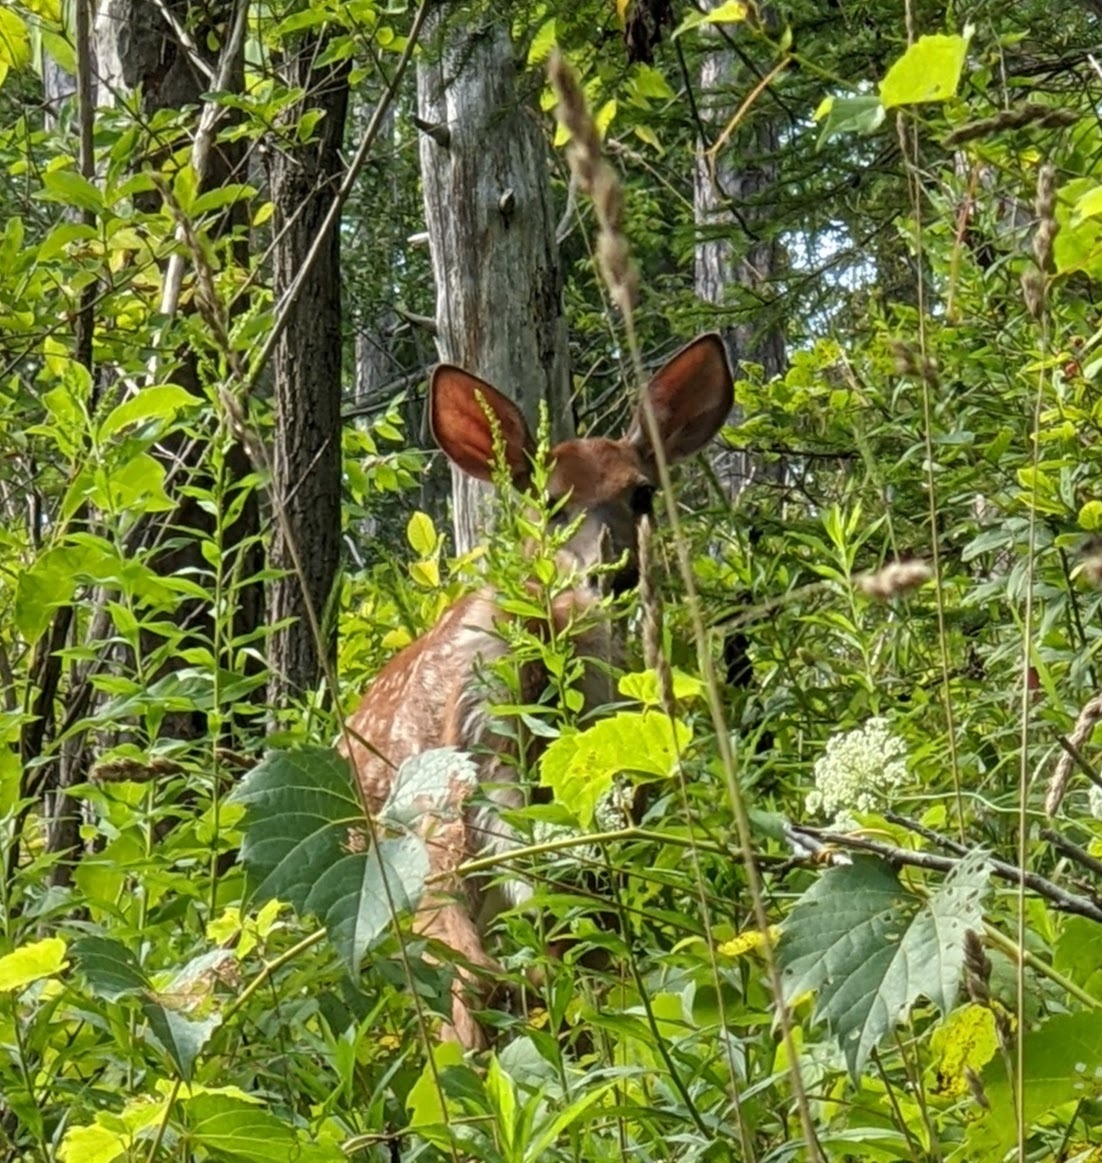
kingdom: Animalia
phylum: Chordata
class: Mammalia
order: Artiodactyla
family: Cervidae
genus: Odocoileus
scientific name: Odocoileus virginianus
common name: White-tailed deer
